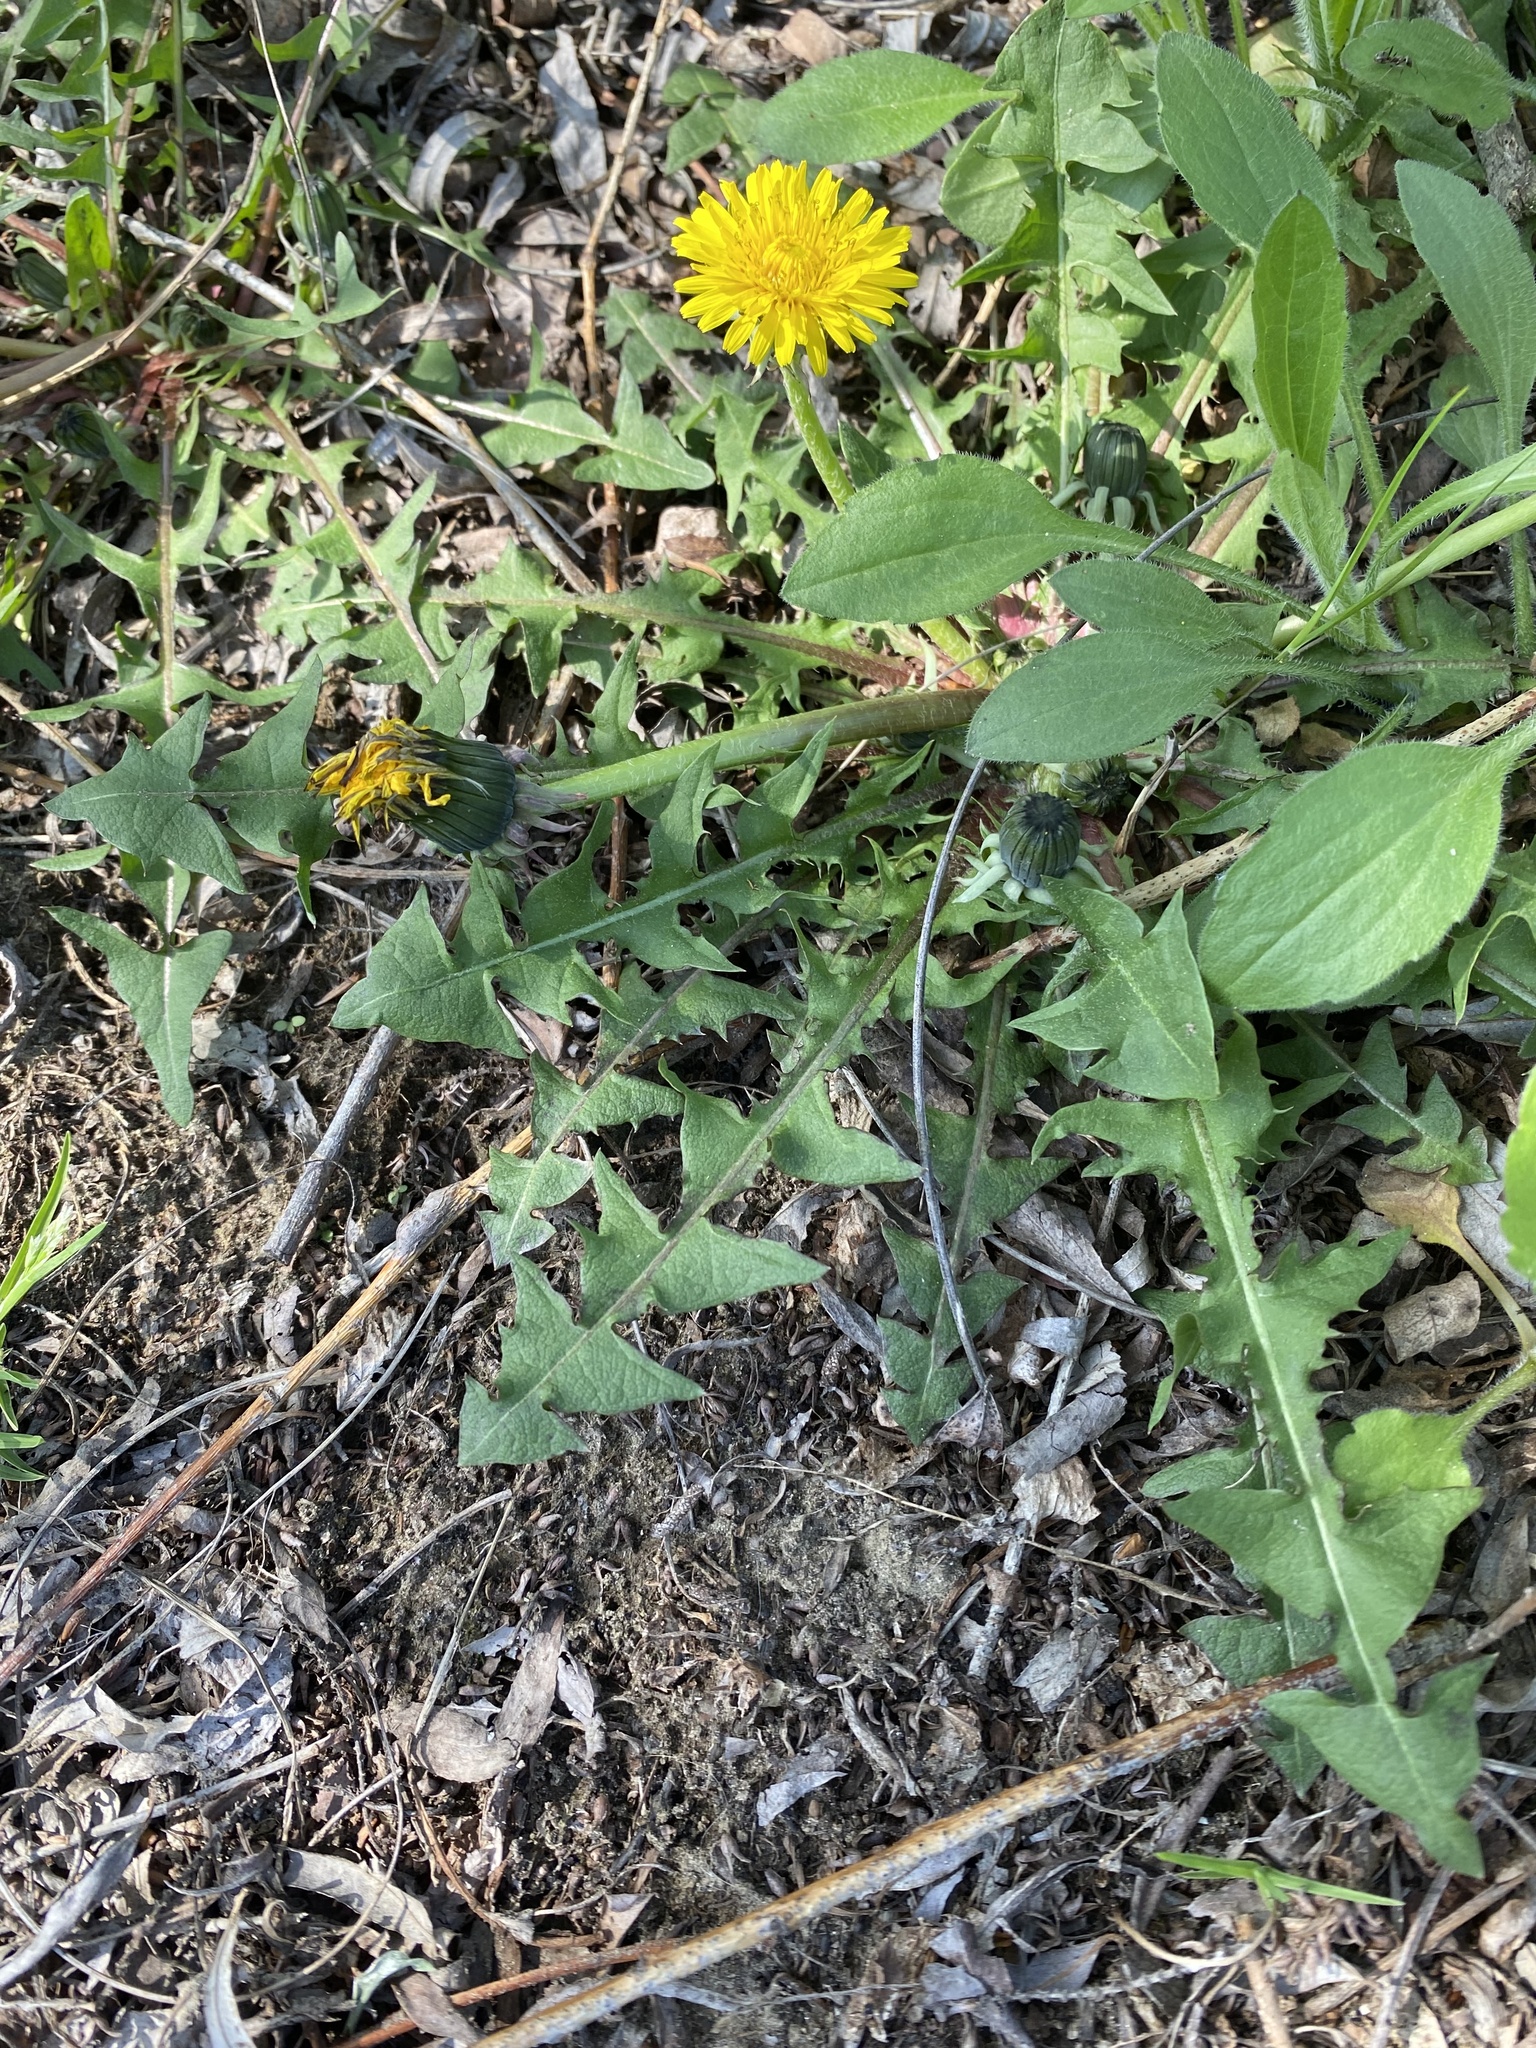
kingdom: Plantae
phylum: Tracheophyta
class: Magnoliopsida
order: Asterales
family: Asteraceae
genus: Taraxacum
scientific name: Taraxacum officinale
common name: Common dandelion
